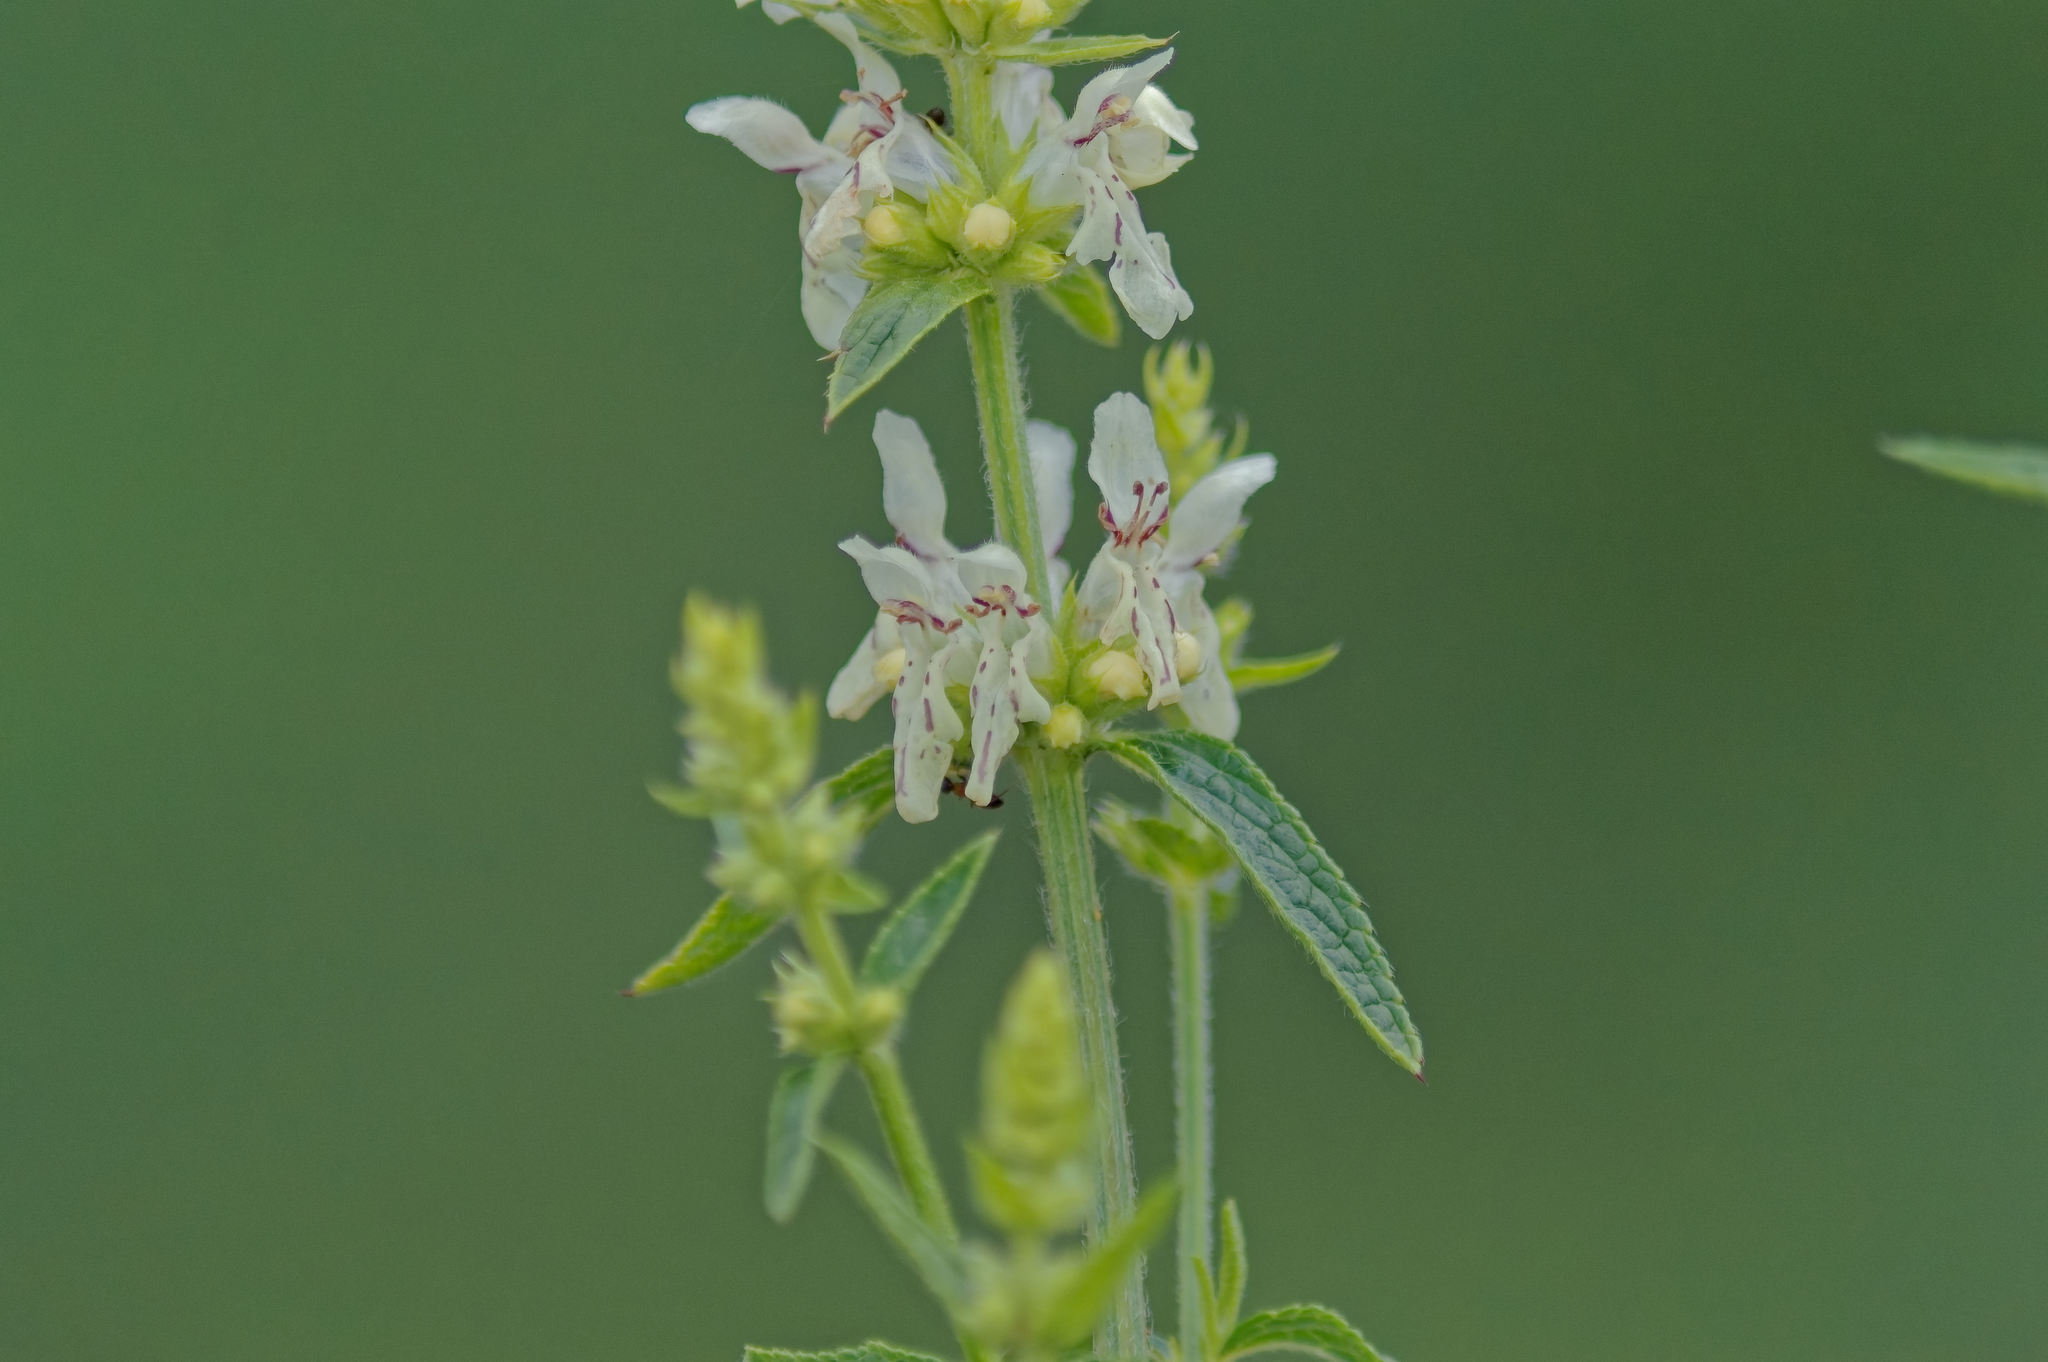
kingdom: Plantae
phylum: Tracheophyta
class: Magnoliopsida
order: Lamiales
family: Lamiaceae
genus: Stachys
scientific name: Stachys recta
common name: Perennial yellow-woundwort
